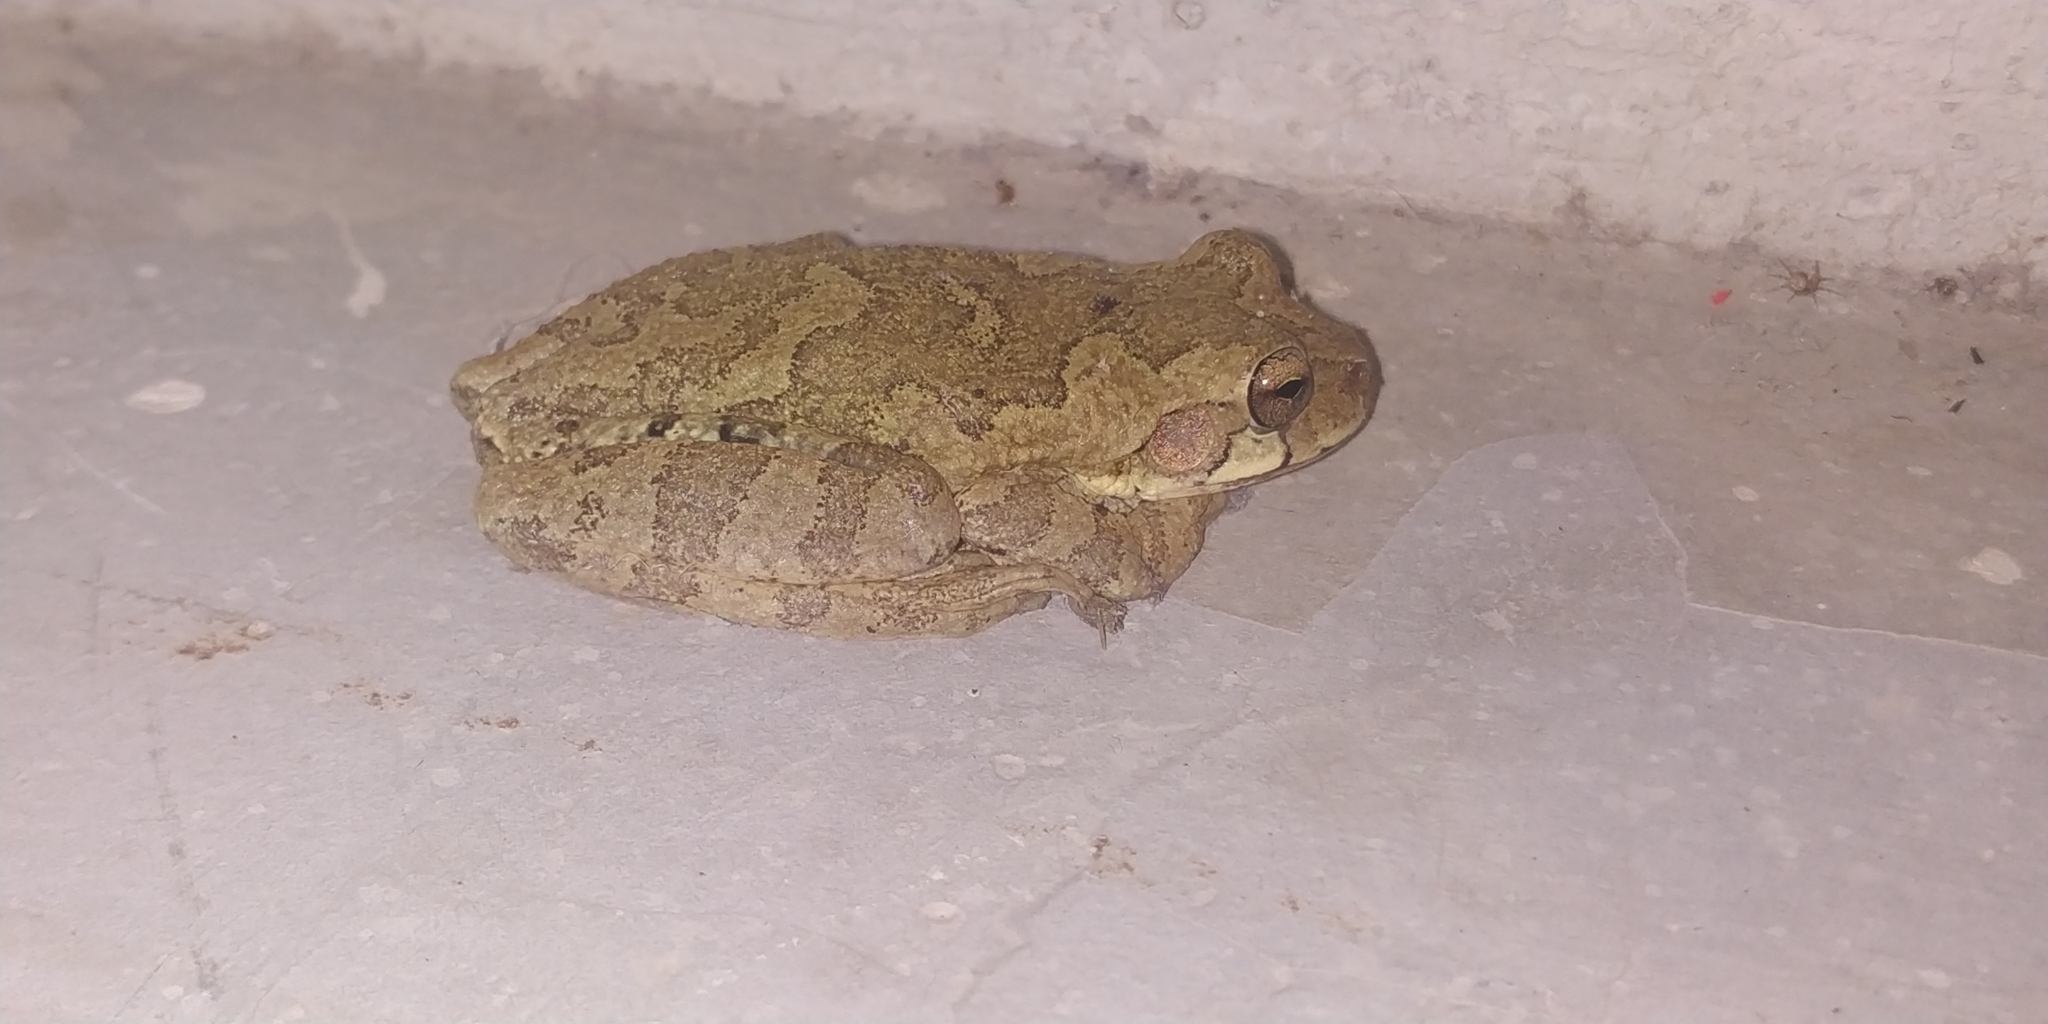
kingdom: Animalia
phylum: Chordata
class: Amphibia
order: Anura
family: Hylidae
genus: Smilisca
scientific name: Smilisca baudinii
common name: Mexican smilisca
